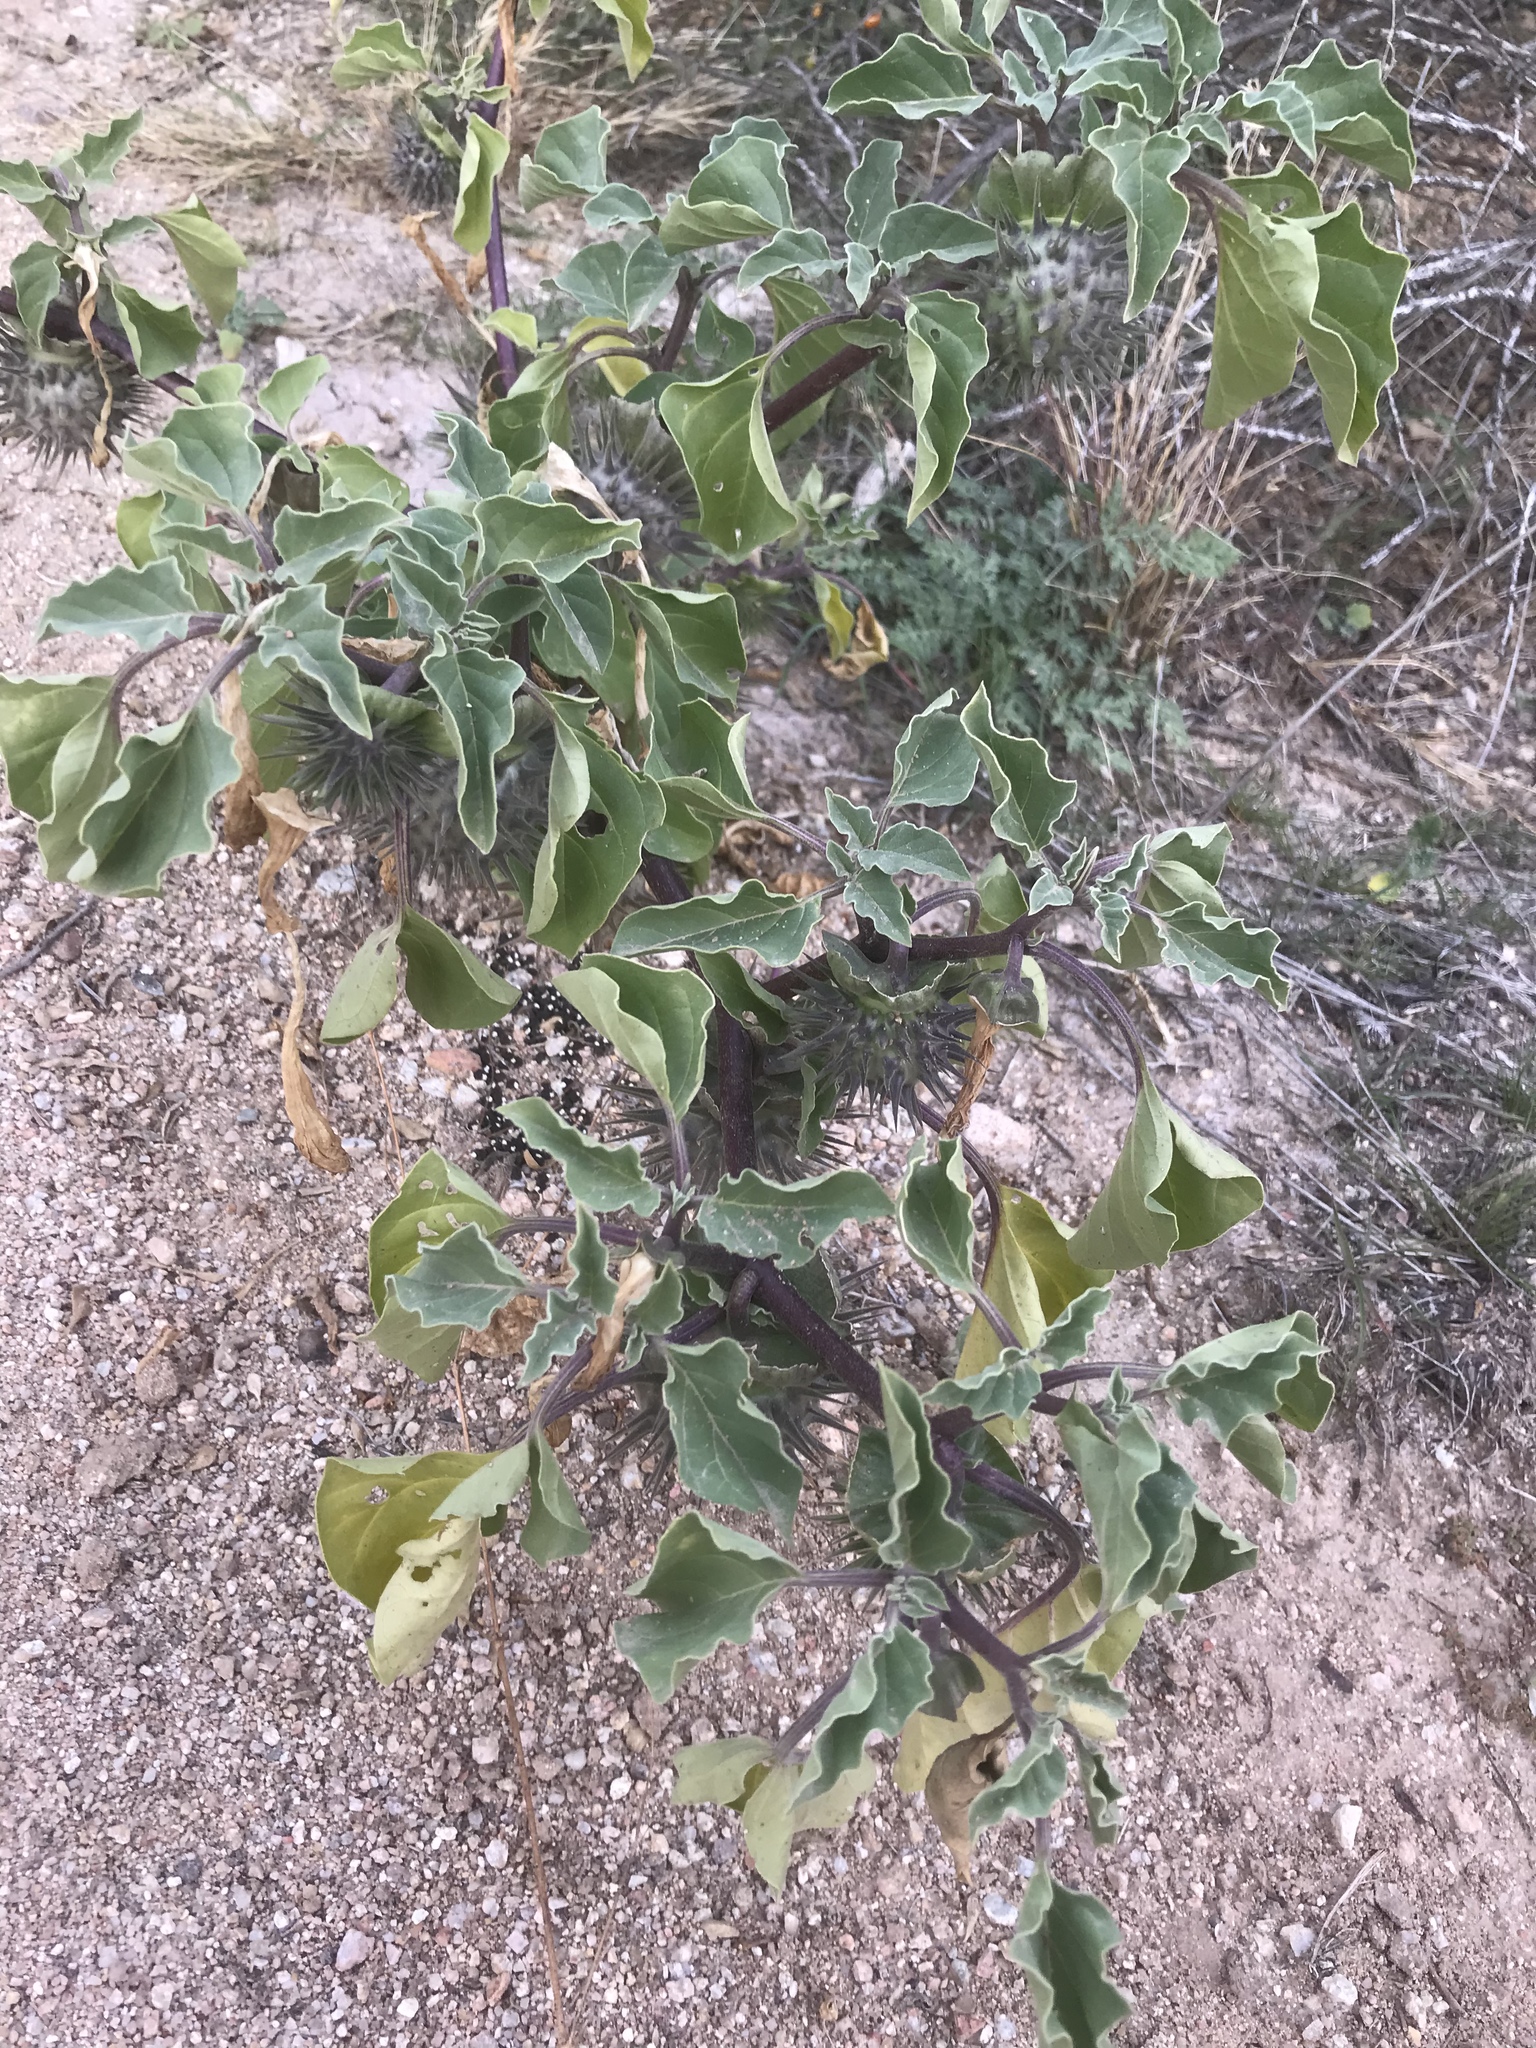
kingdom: Plantae
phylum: Tracheophyta
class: Magnoliopsida
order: Solanales
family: Solanaceae
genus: Datura
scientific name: Datura discolor
